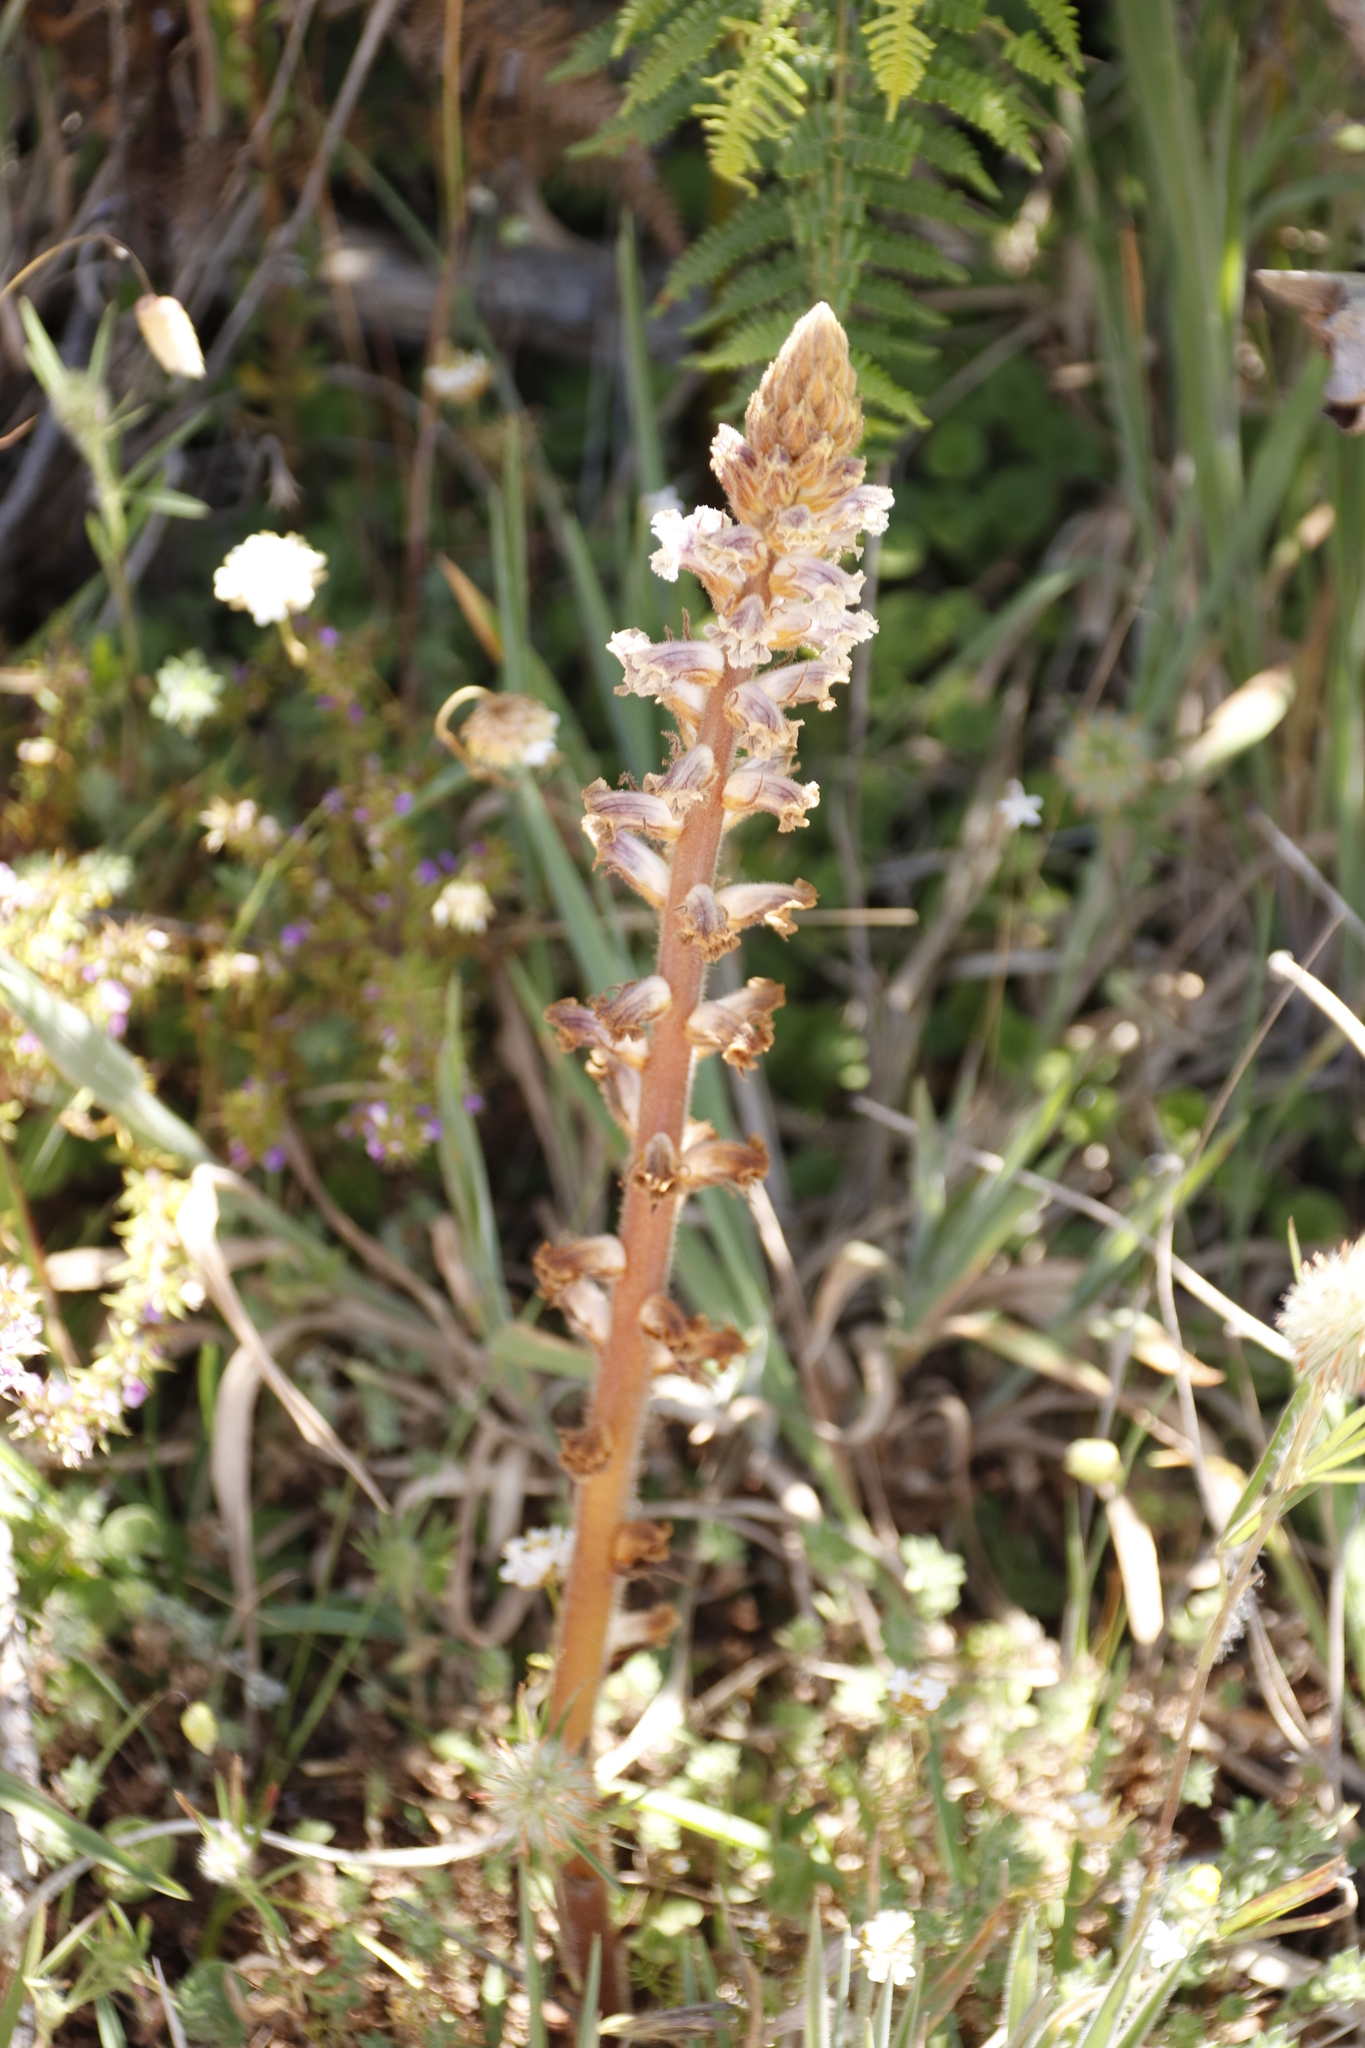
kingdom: Plantae
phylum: Tracheophyta
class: Magnoliopsida
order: Lamiales
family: Orobanchaceae
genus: Orobanche
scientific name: Orobanche minor
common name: Common broomrape
